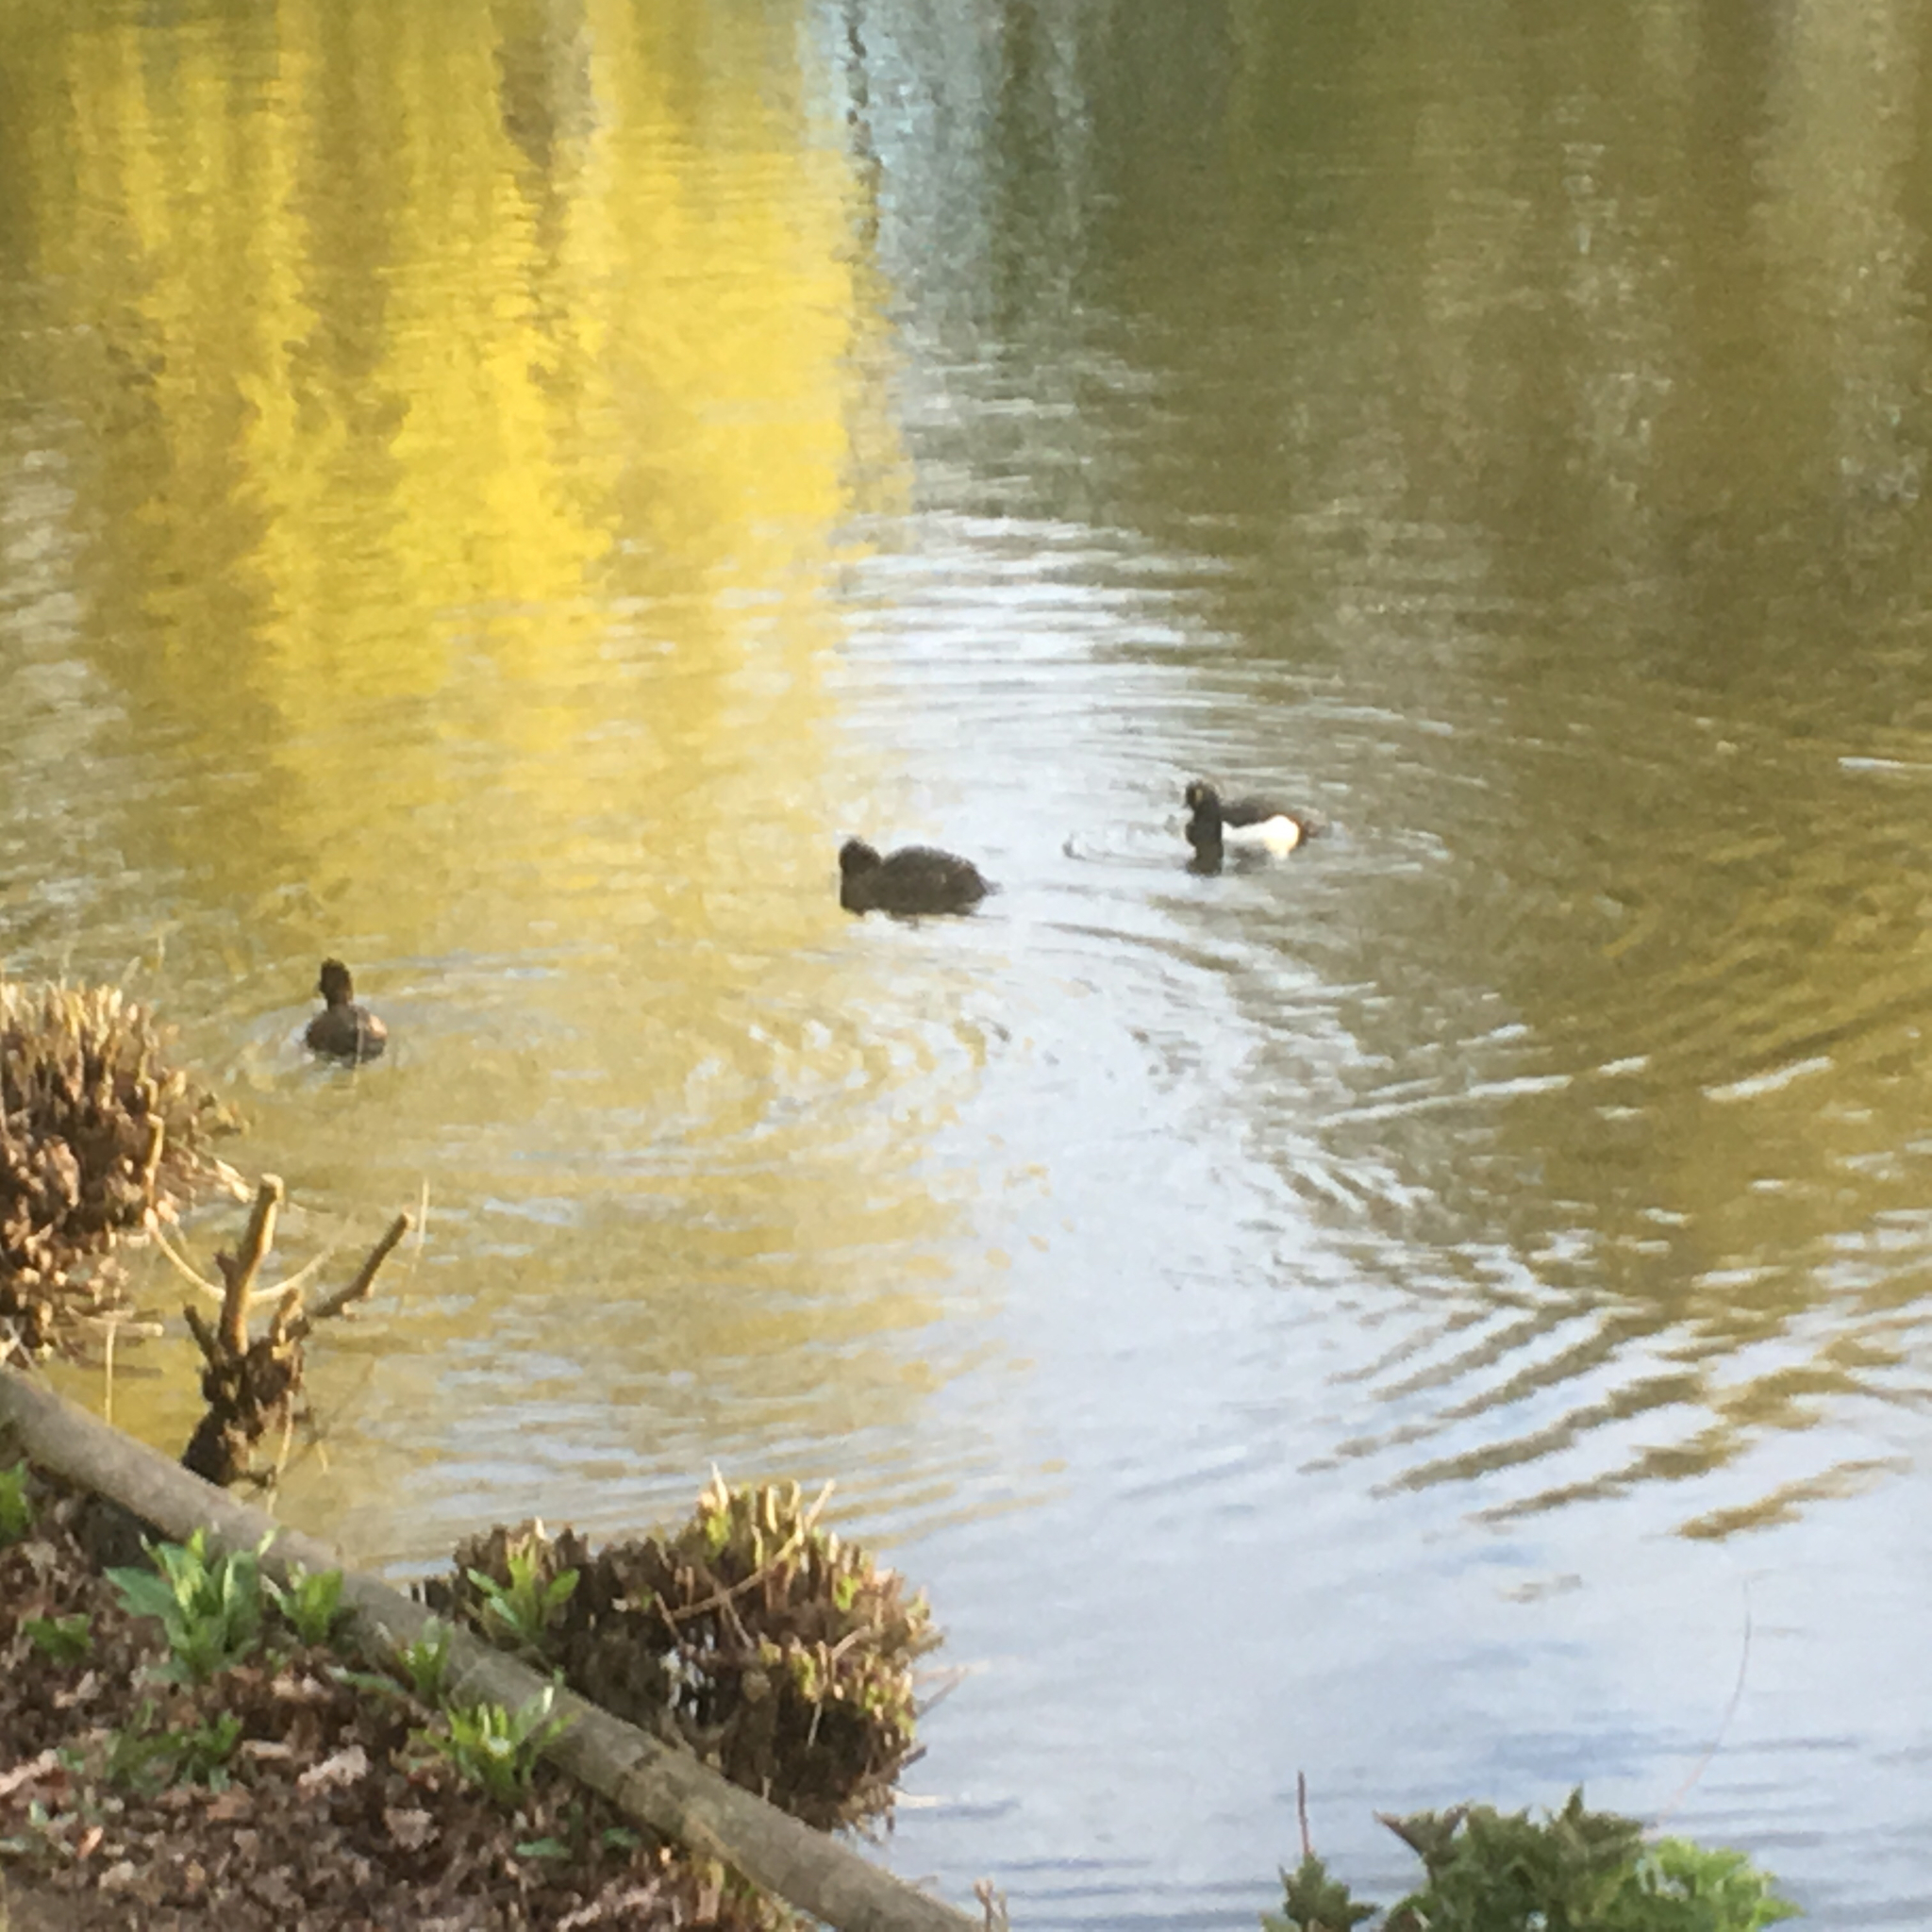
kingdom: Animalia
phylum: Chordata
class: Aves
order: Anseriformes
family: Anatidae
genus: Aythya
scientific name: Aythya fuligula
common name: Tufted duck
